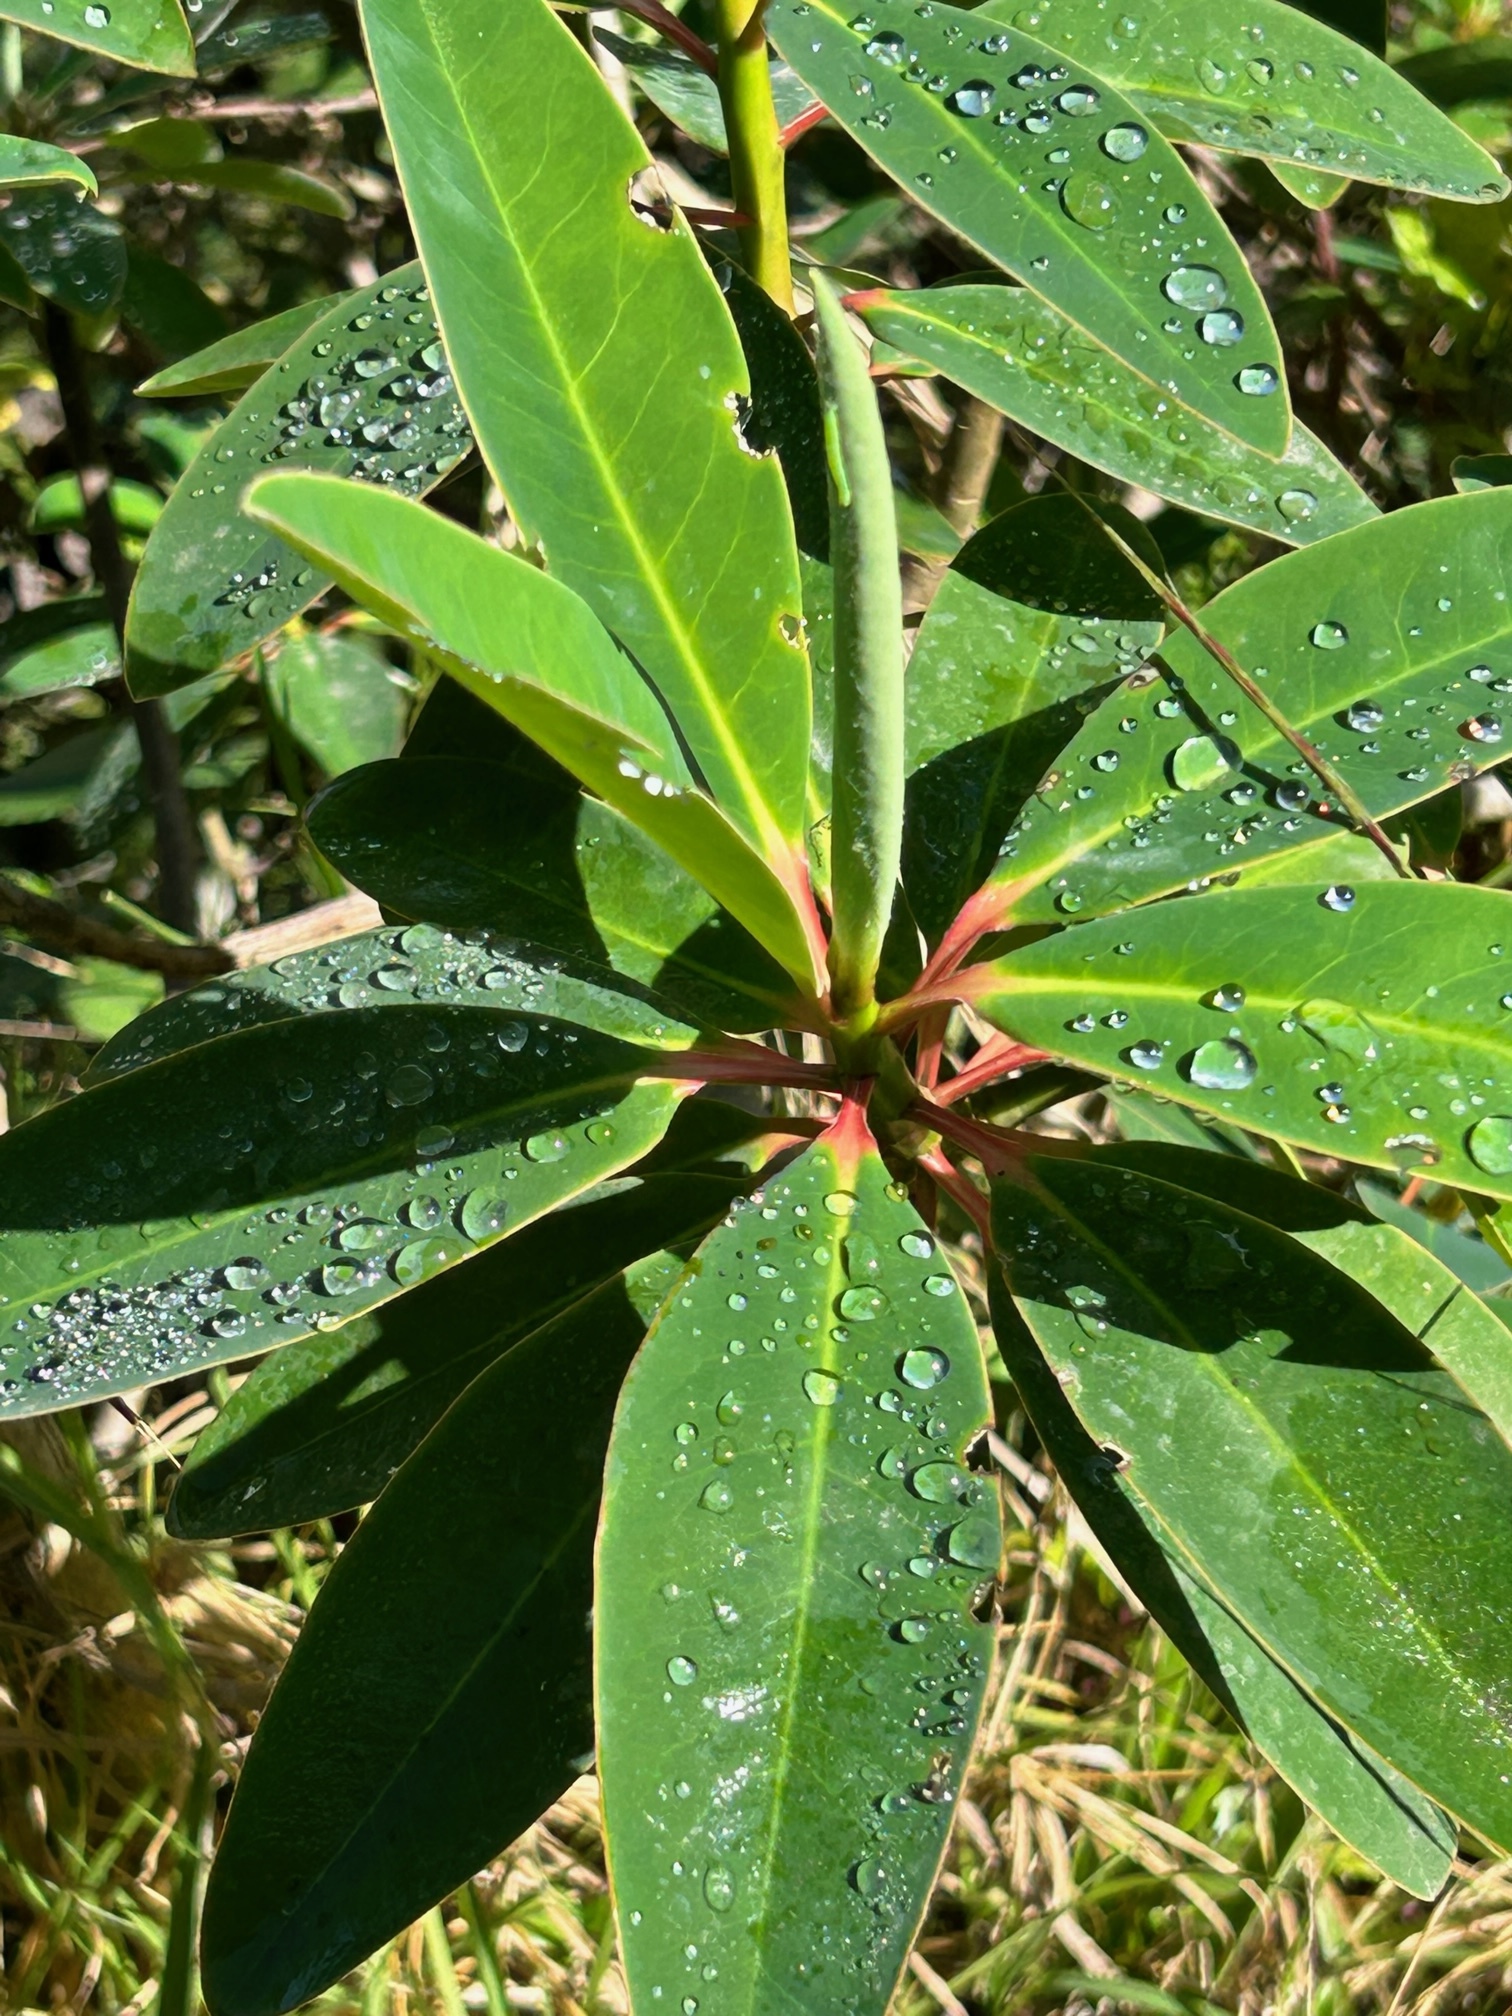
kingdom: Plantae
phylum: Tracheophyta
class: Magnoliopsida
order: Malpighiales
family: Euphorbiaceae
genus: Euphorbia
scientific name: Euphorbia laurifolia
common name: Lechero
